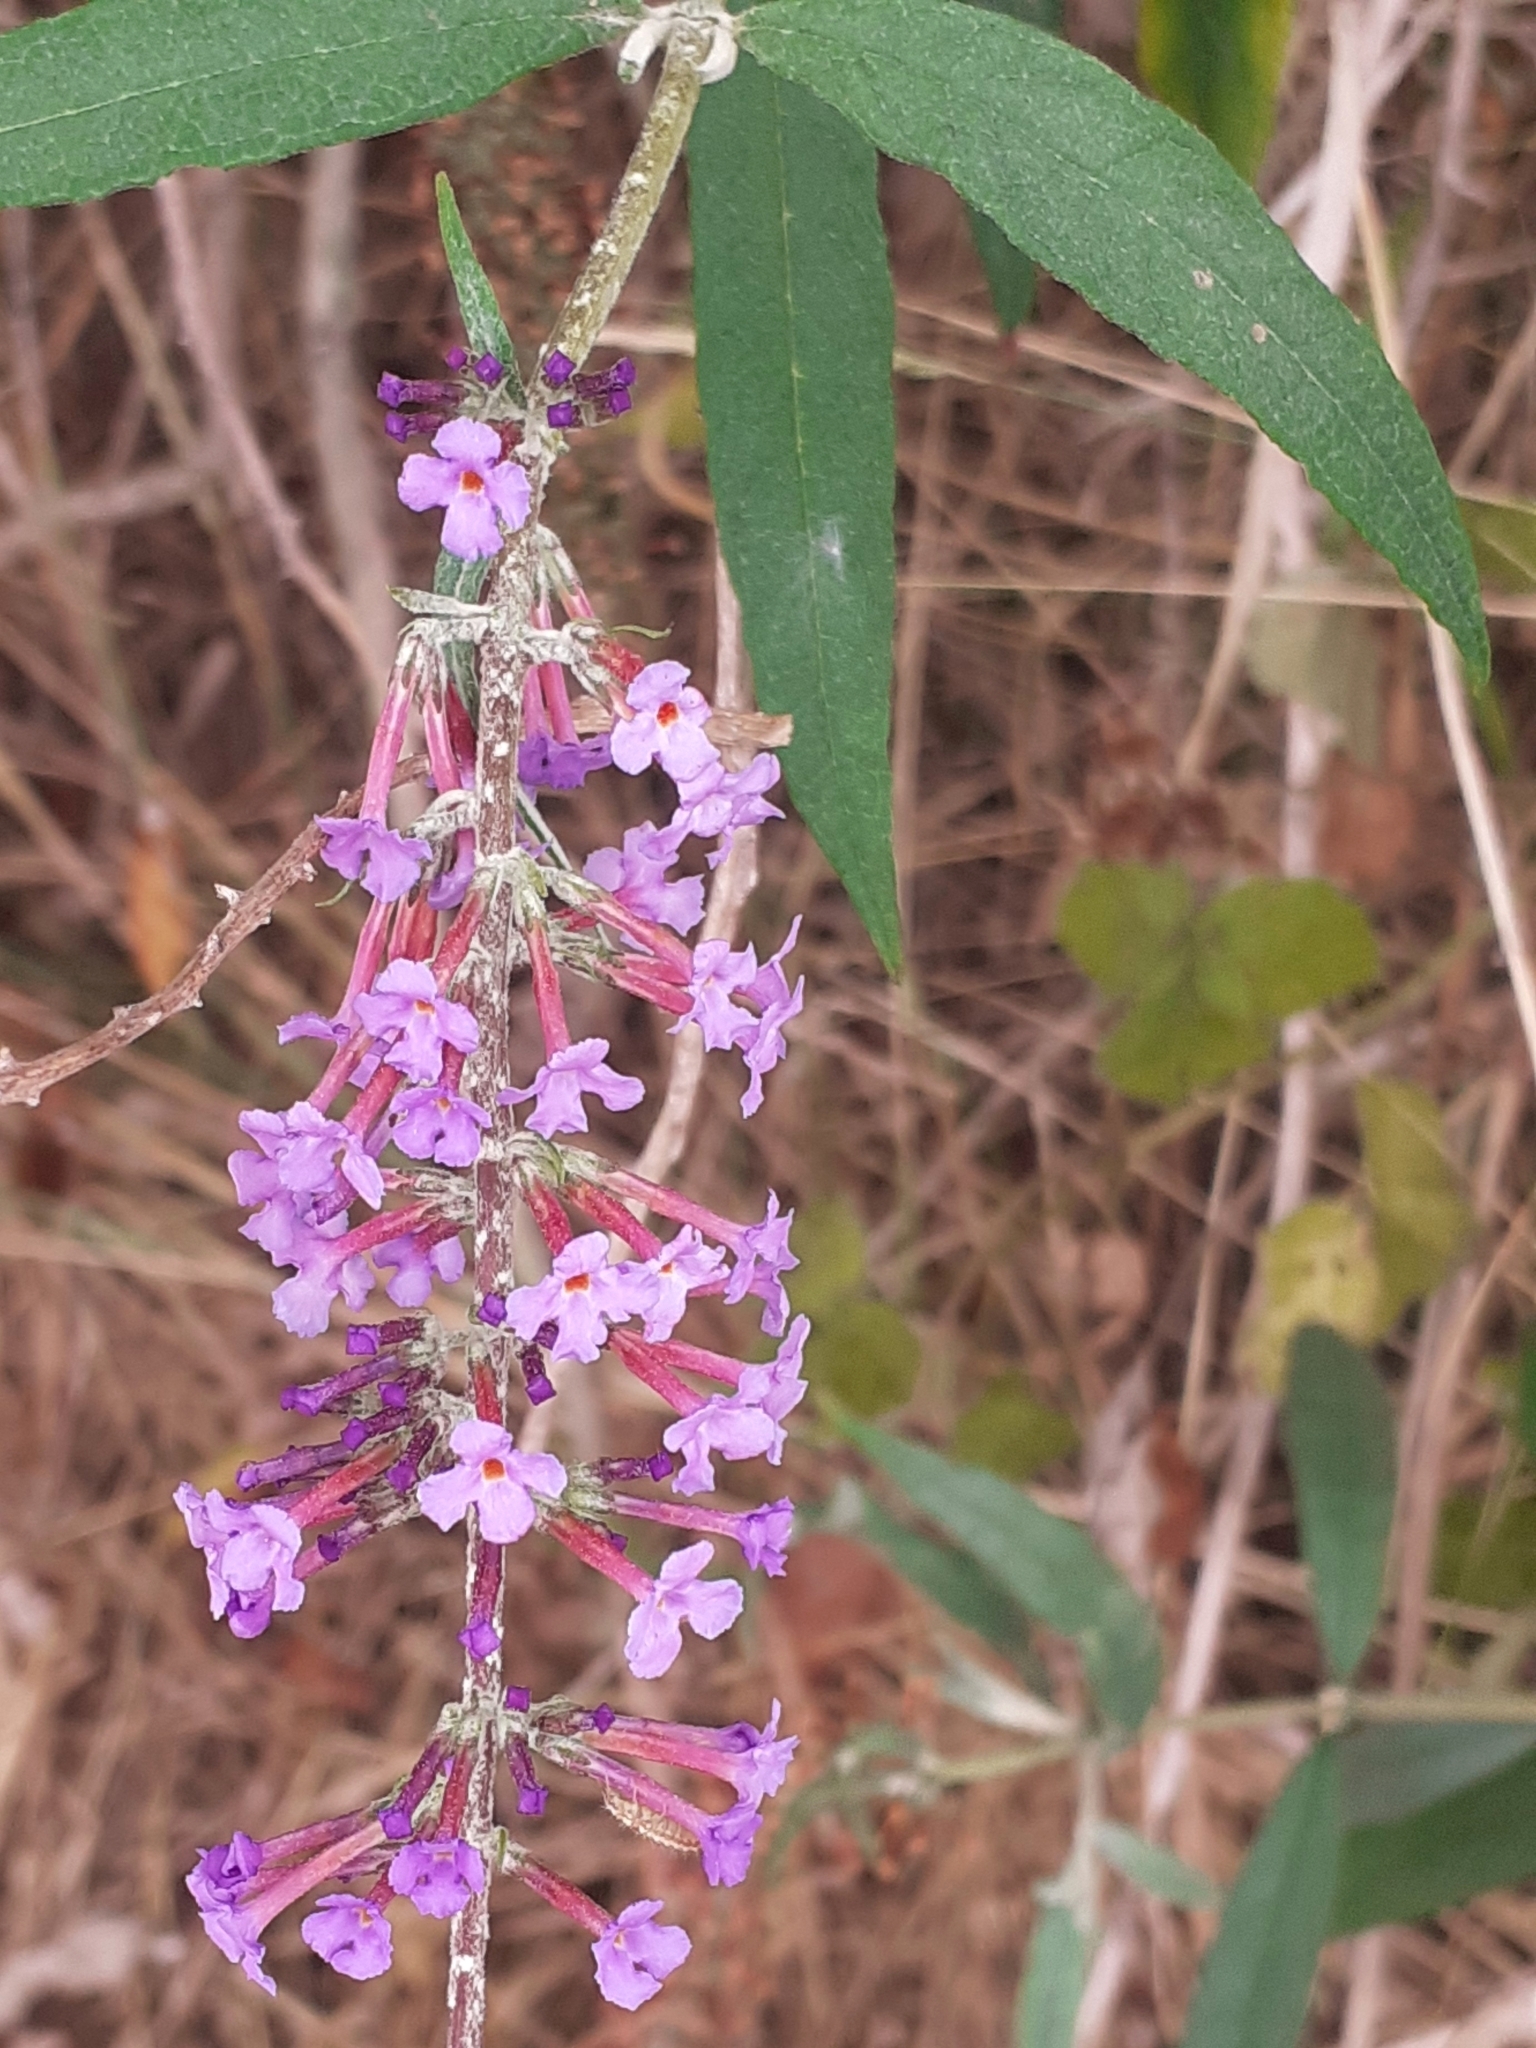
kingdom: Plantae
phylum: Tracheophyta
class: Magnoliopsida
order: Lamiales
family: Scrophulariaceae
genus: Buddleja
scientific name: Buddleja davidii
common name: Butterfly-bush
